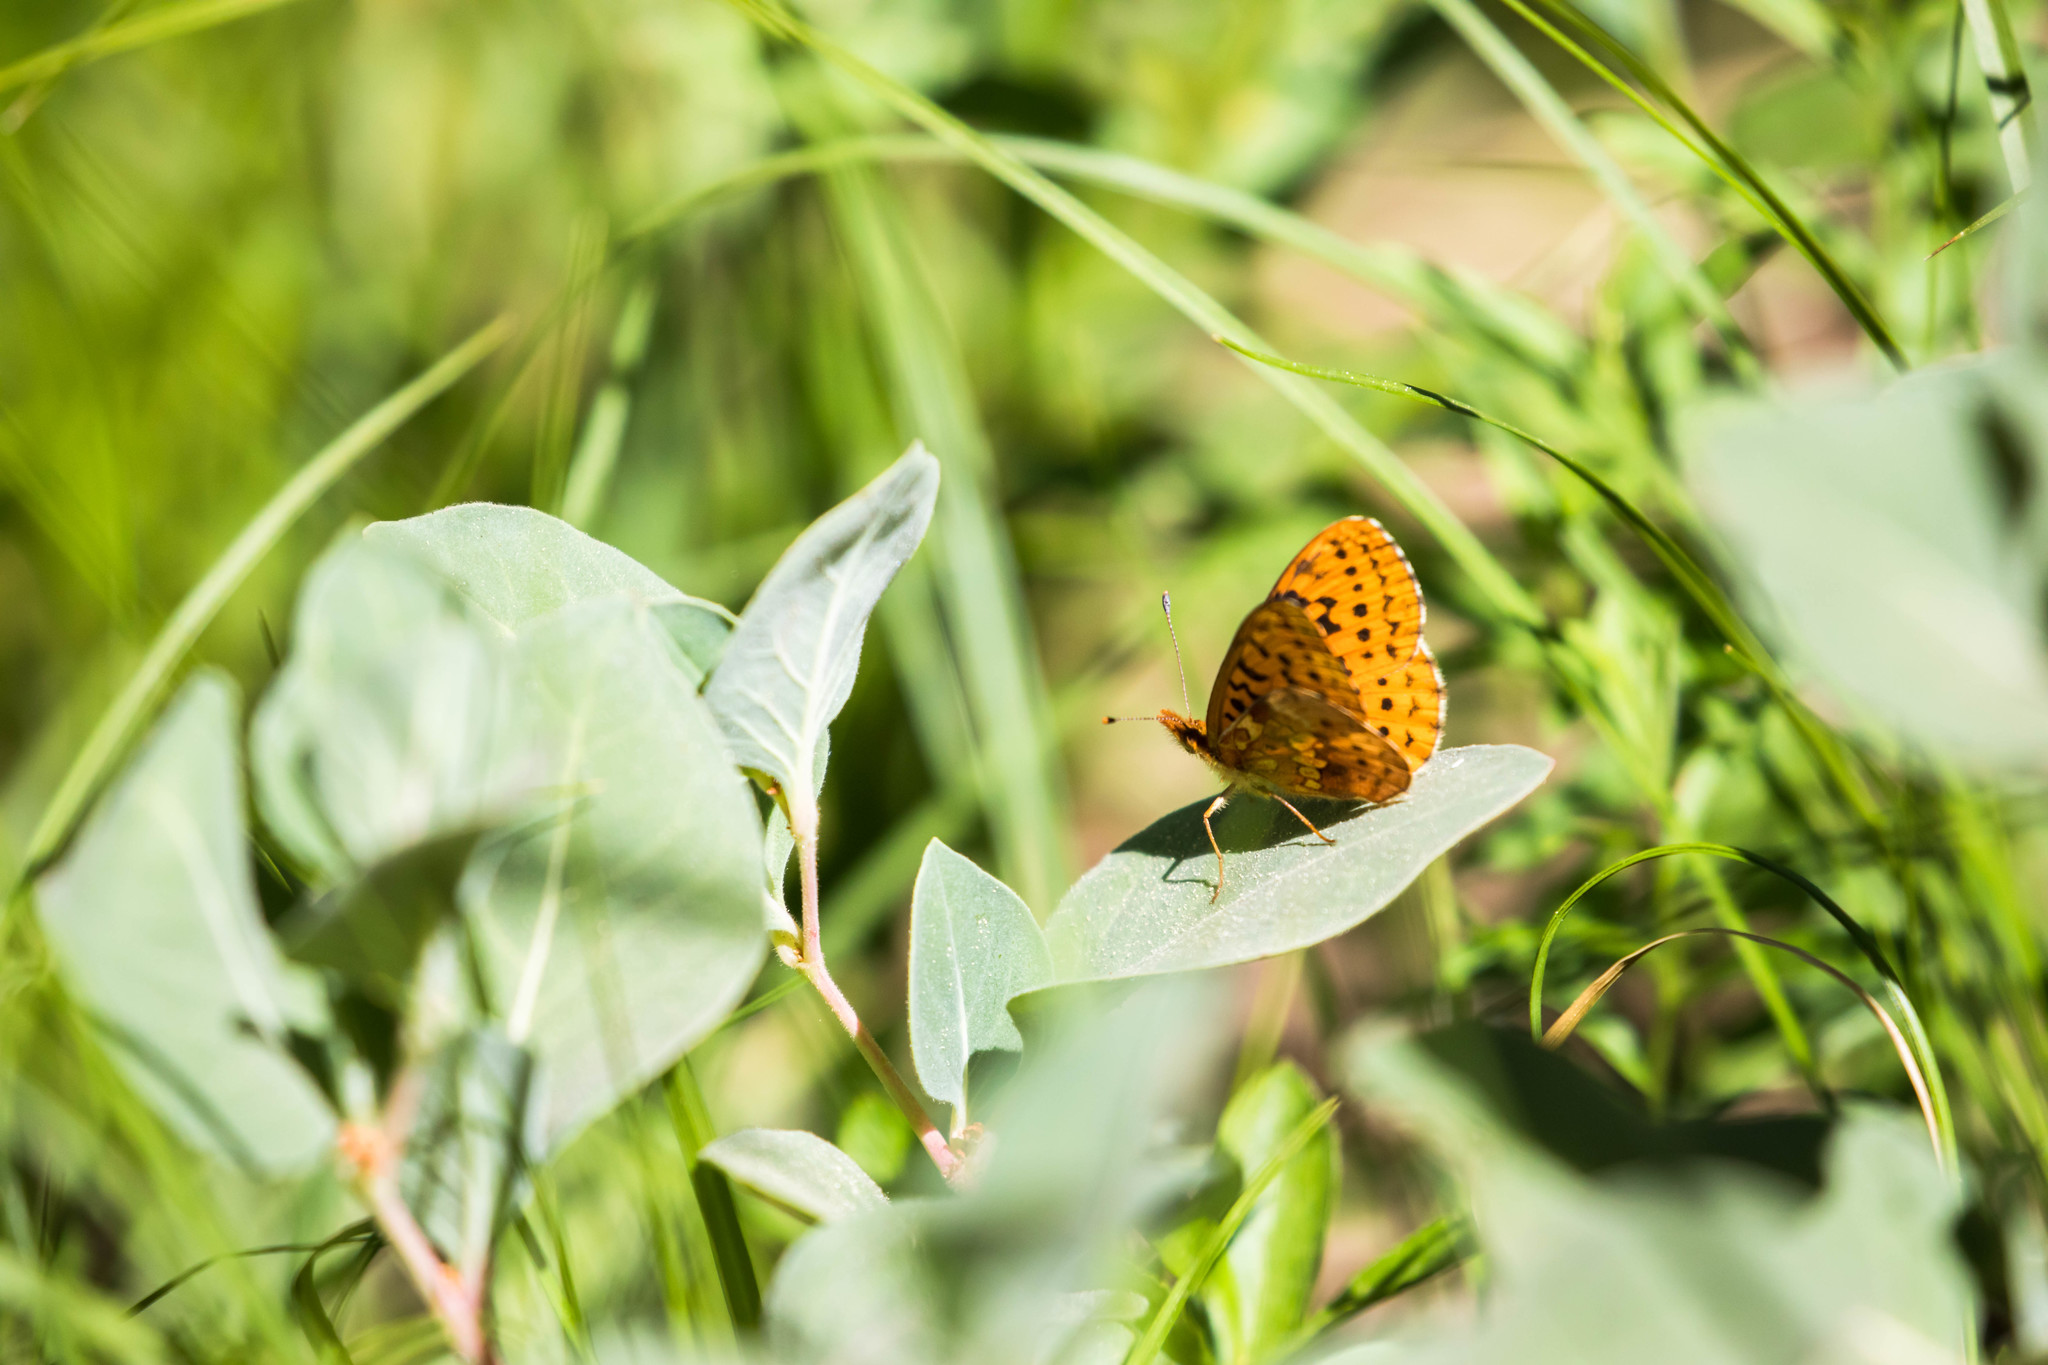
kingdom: Animalia
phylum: Arthropoda
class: Insecta
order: Lepidoptera
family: Nymphalidae
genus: Boloria
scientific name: Boloria epithore
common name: Pacific fritillary
